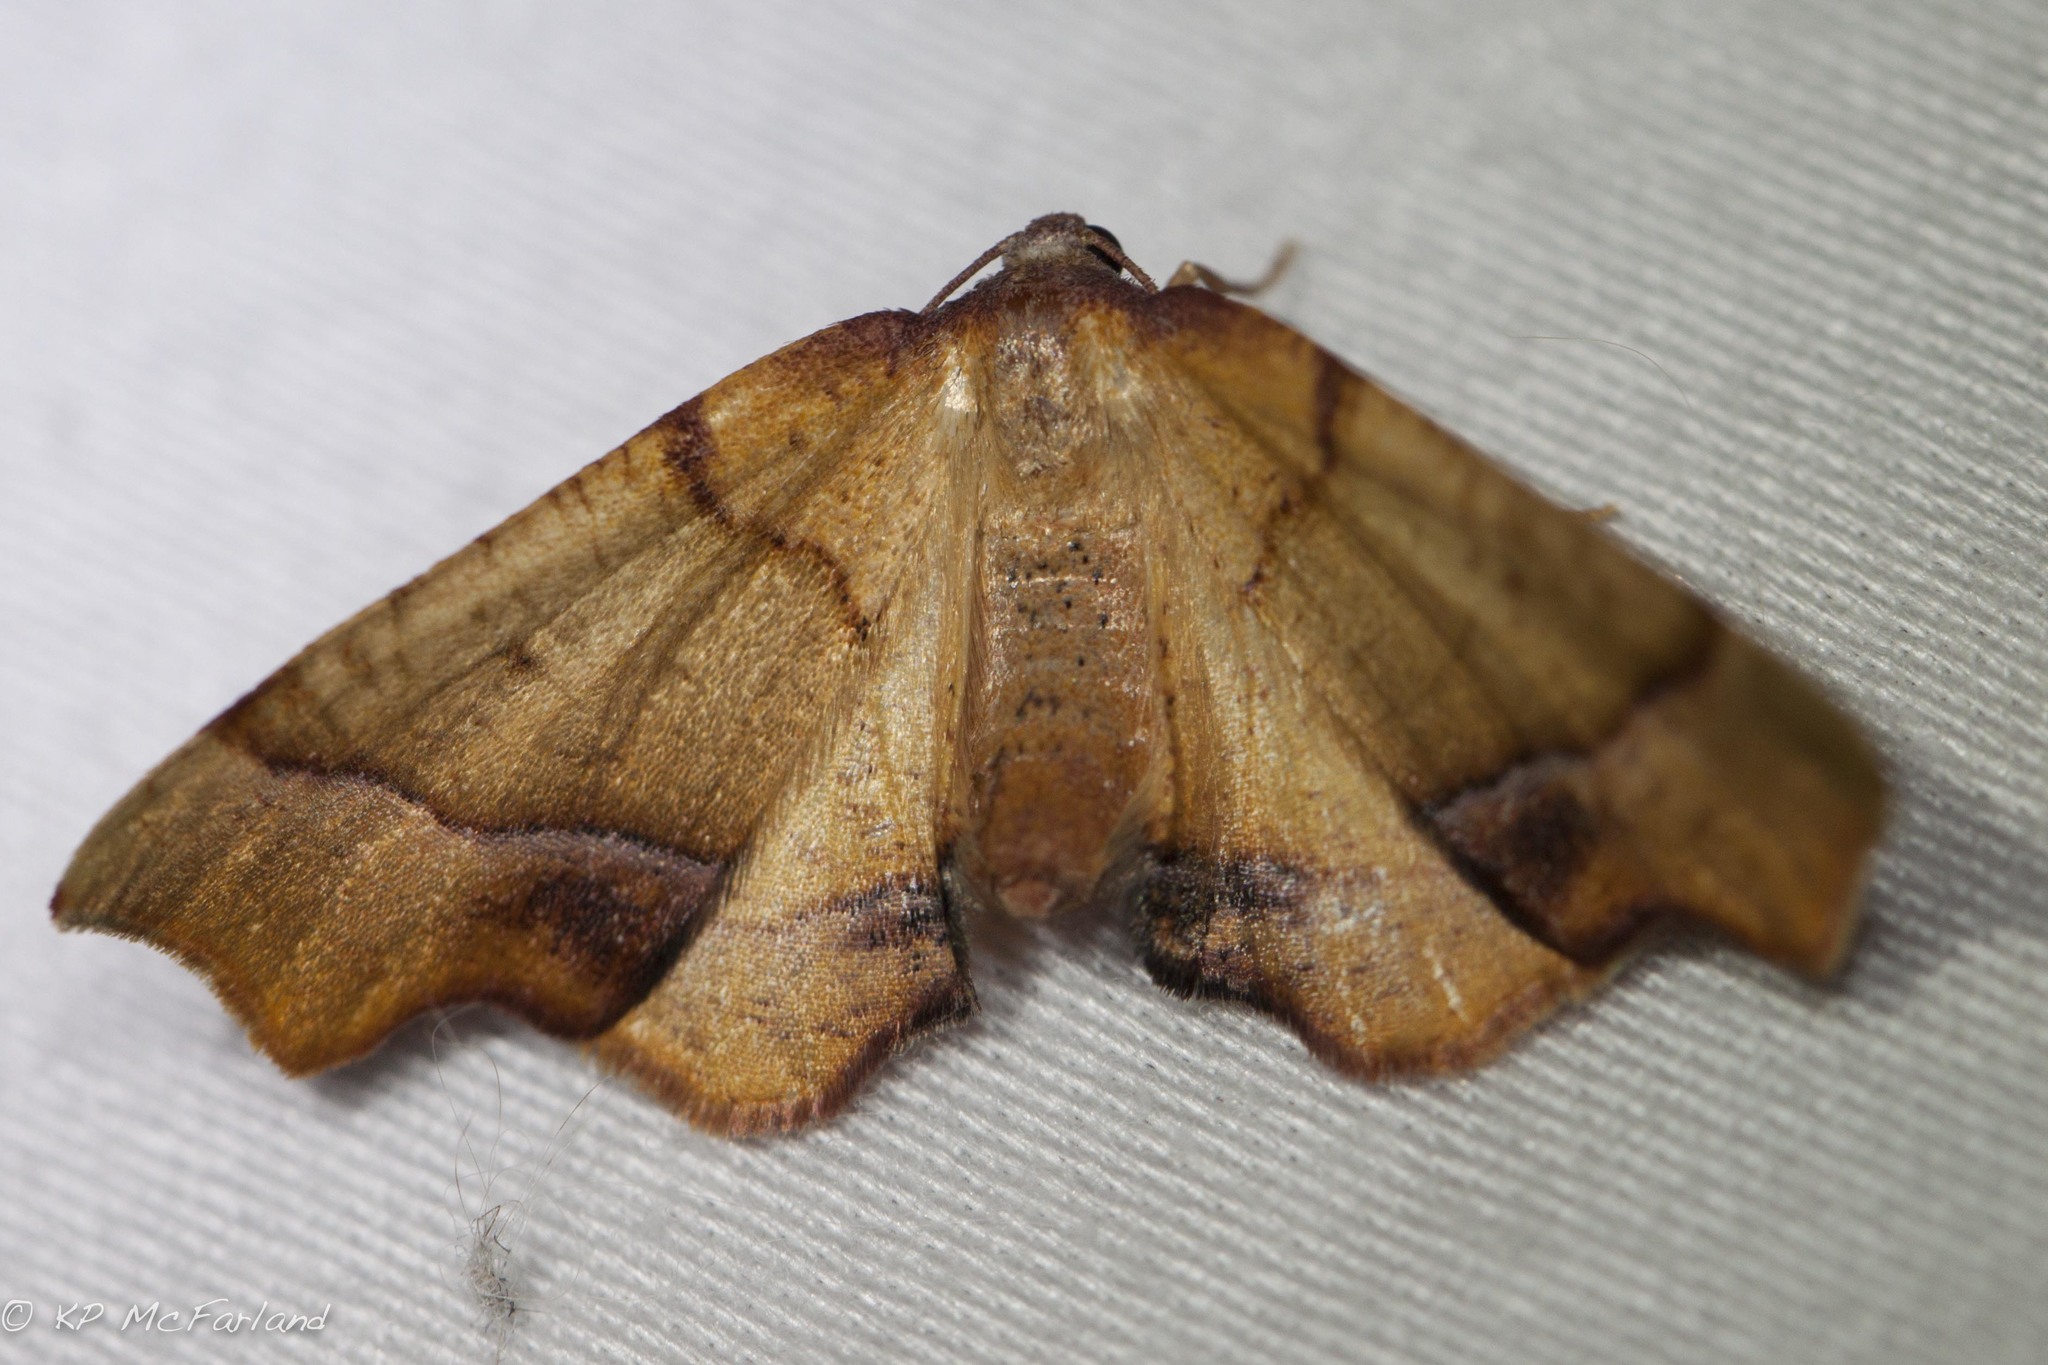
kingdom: Animalia
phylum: Arthropoda
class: Insecta
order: Lepidoptera
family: Geometridae
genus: Plagodis
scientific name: Plagodis phlogosaria
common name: Straight-lined plagodis
